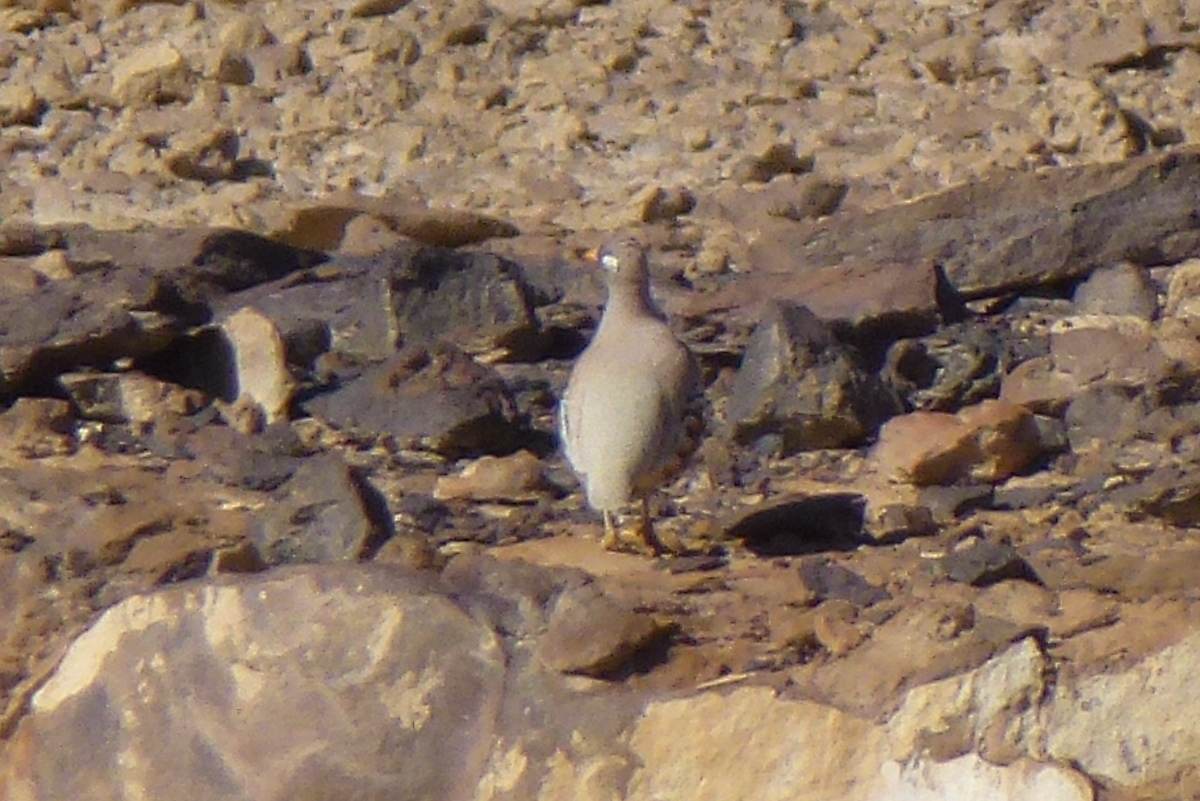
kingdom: Animalia
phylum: Chordata
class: Aves
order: Galliformes
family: Phasianidae
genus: Ammoperdix
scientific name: Ammoperdix heyi
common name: Sand partridge
